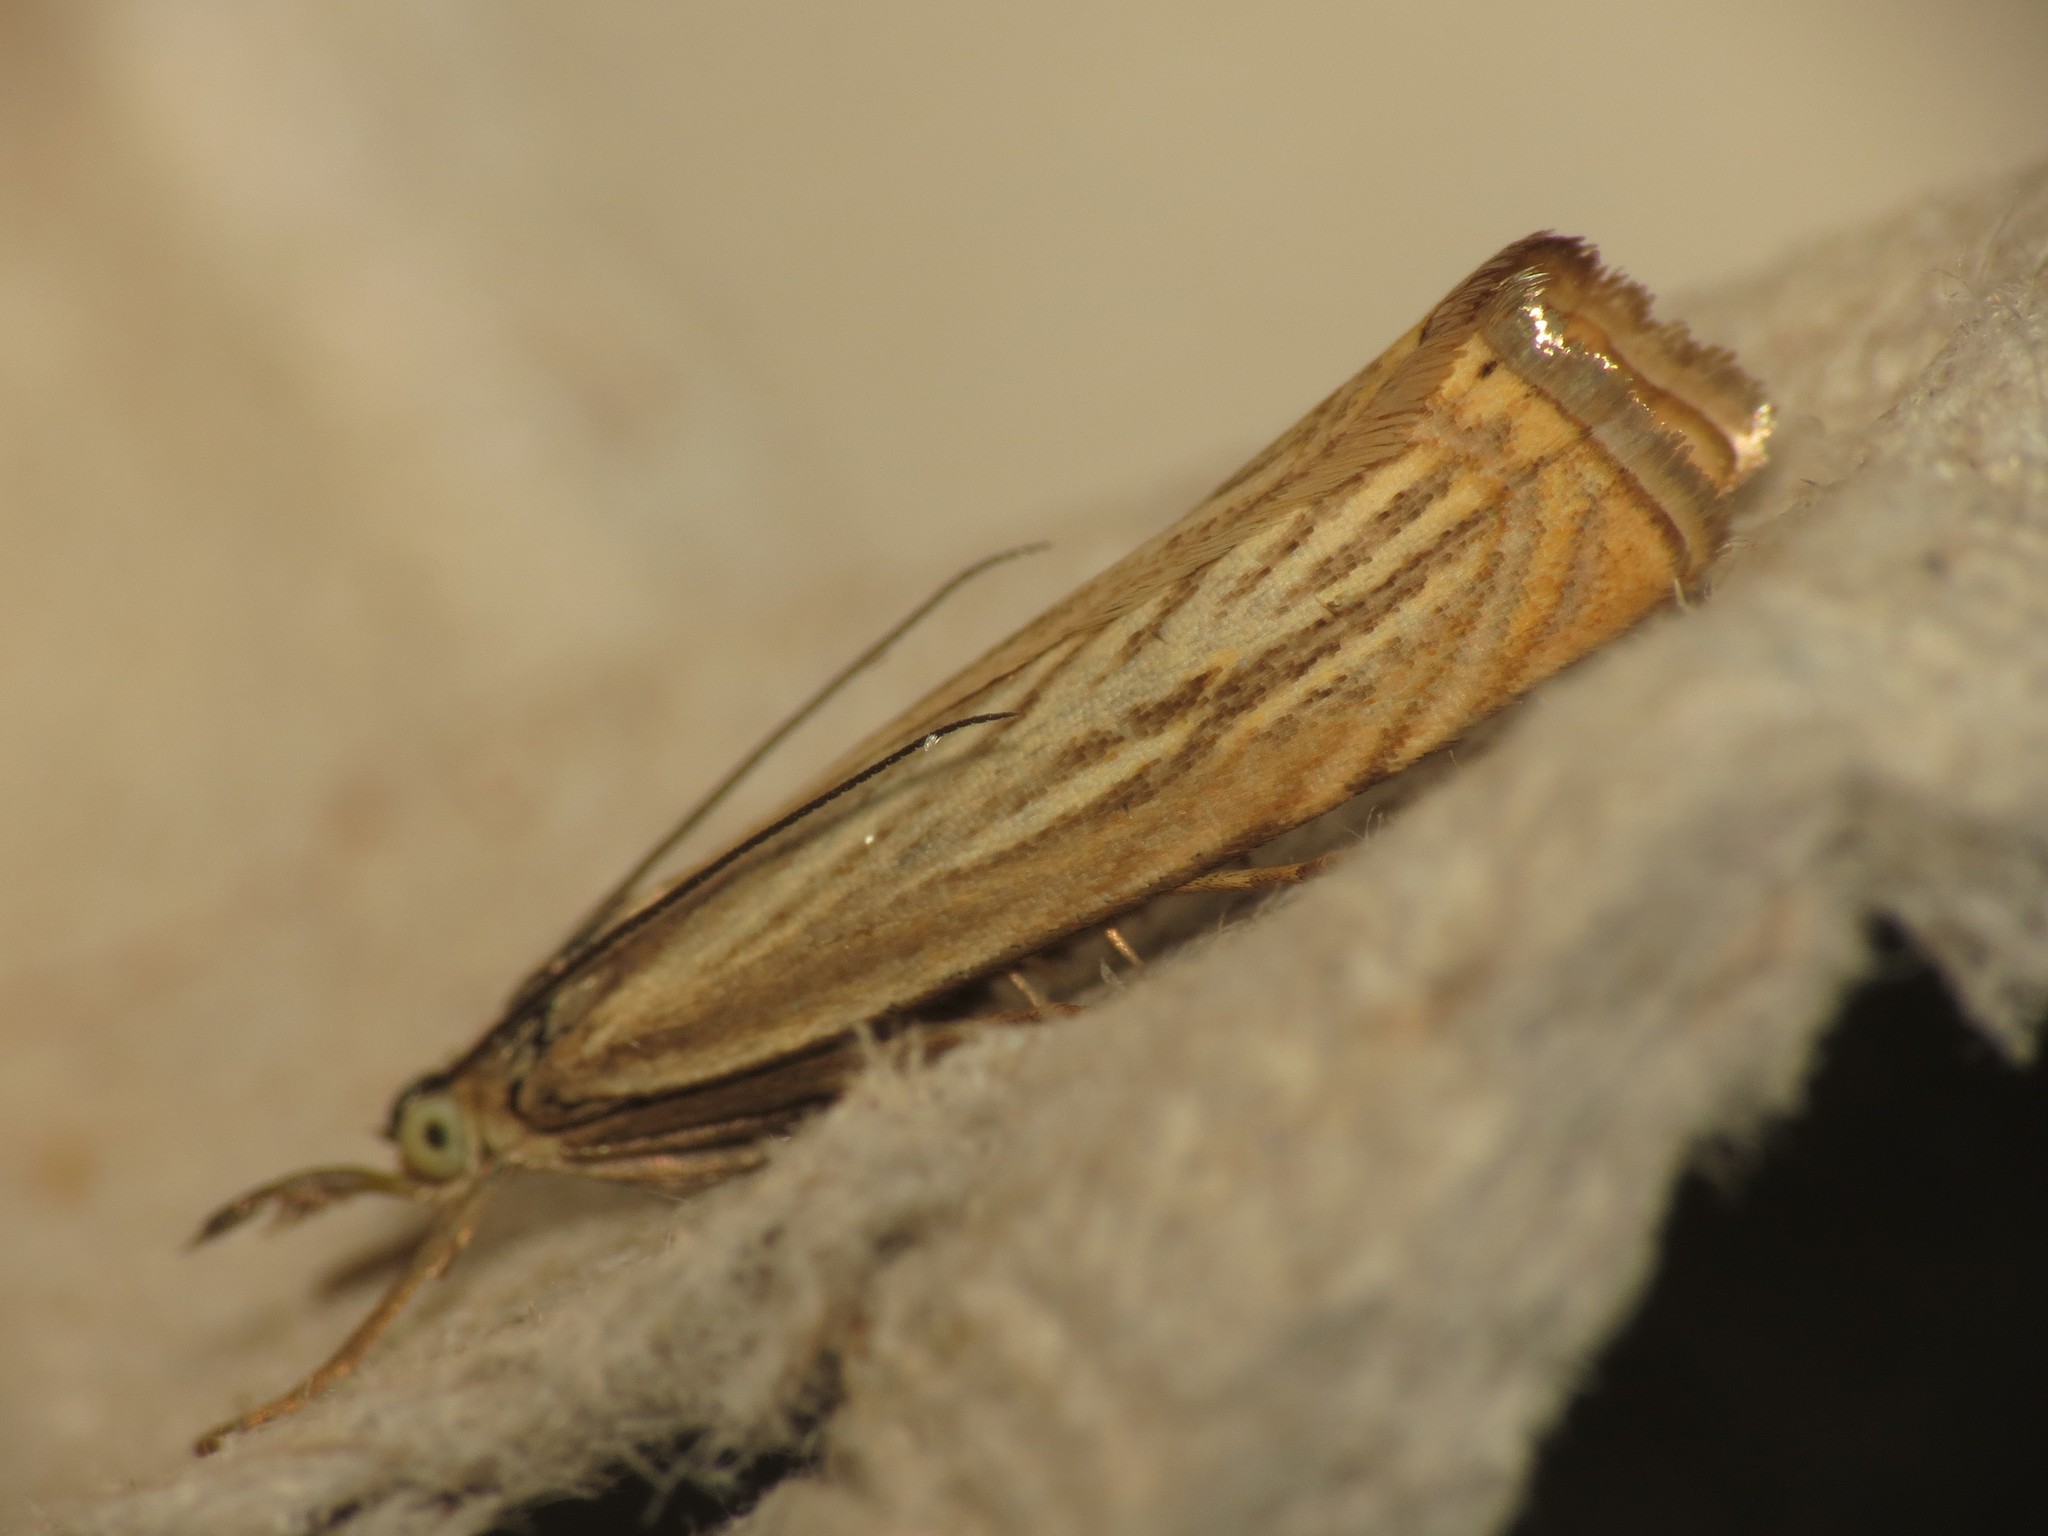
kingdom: Animalia
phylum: Arthropoda
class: Insecta
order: Lepidoptera
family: Crambidae
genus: Chrysoteuchia
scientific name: Chrysoteuchia culmella
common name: Garden grass-veneer
